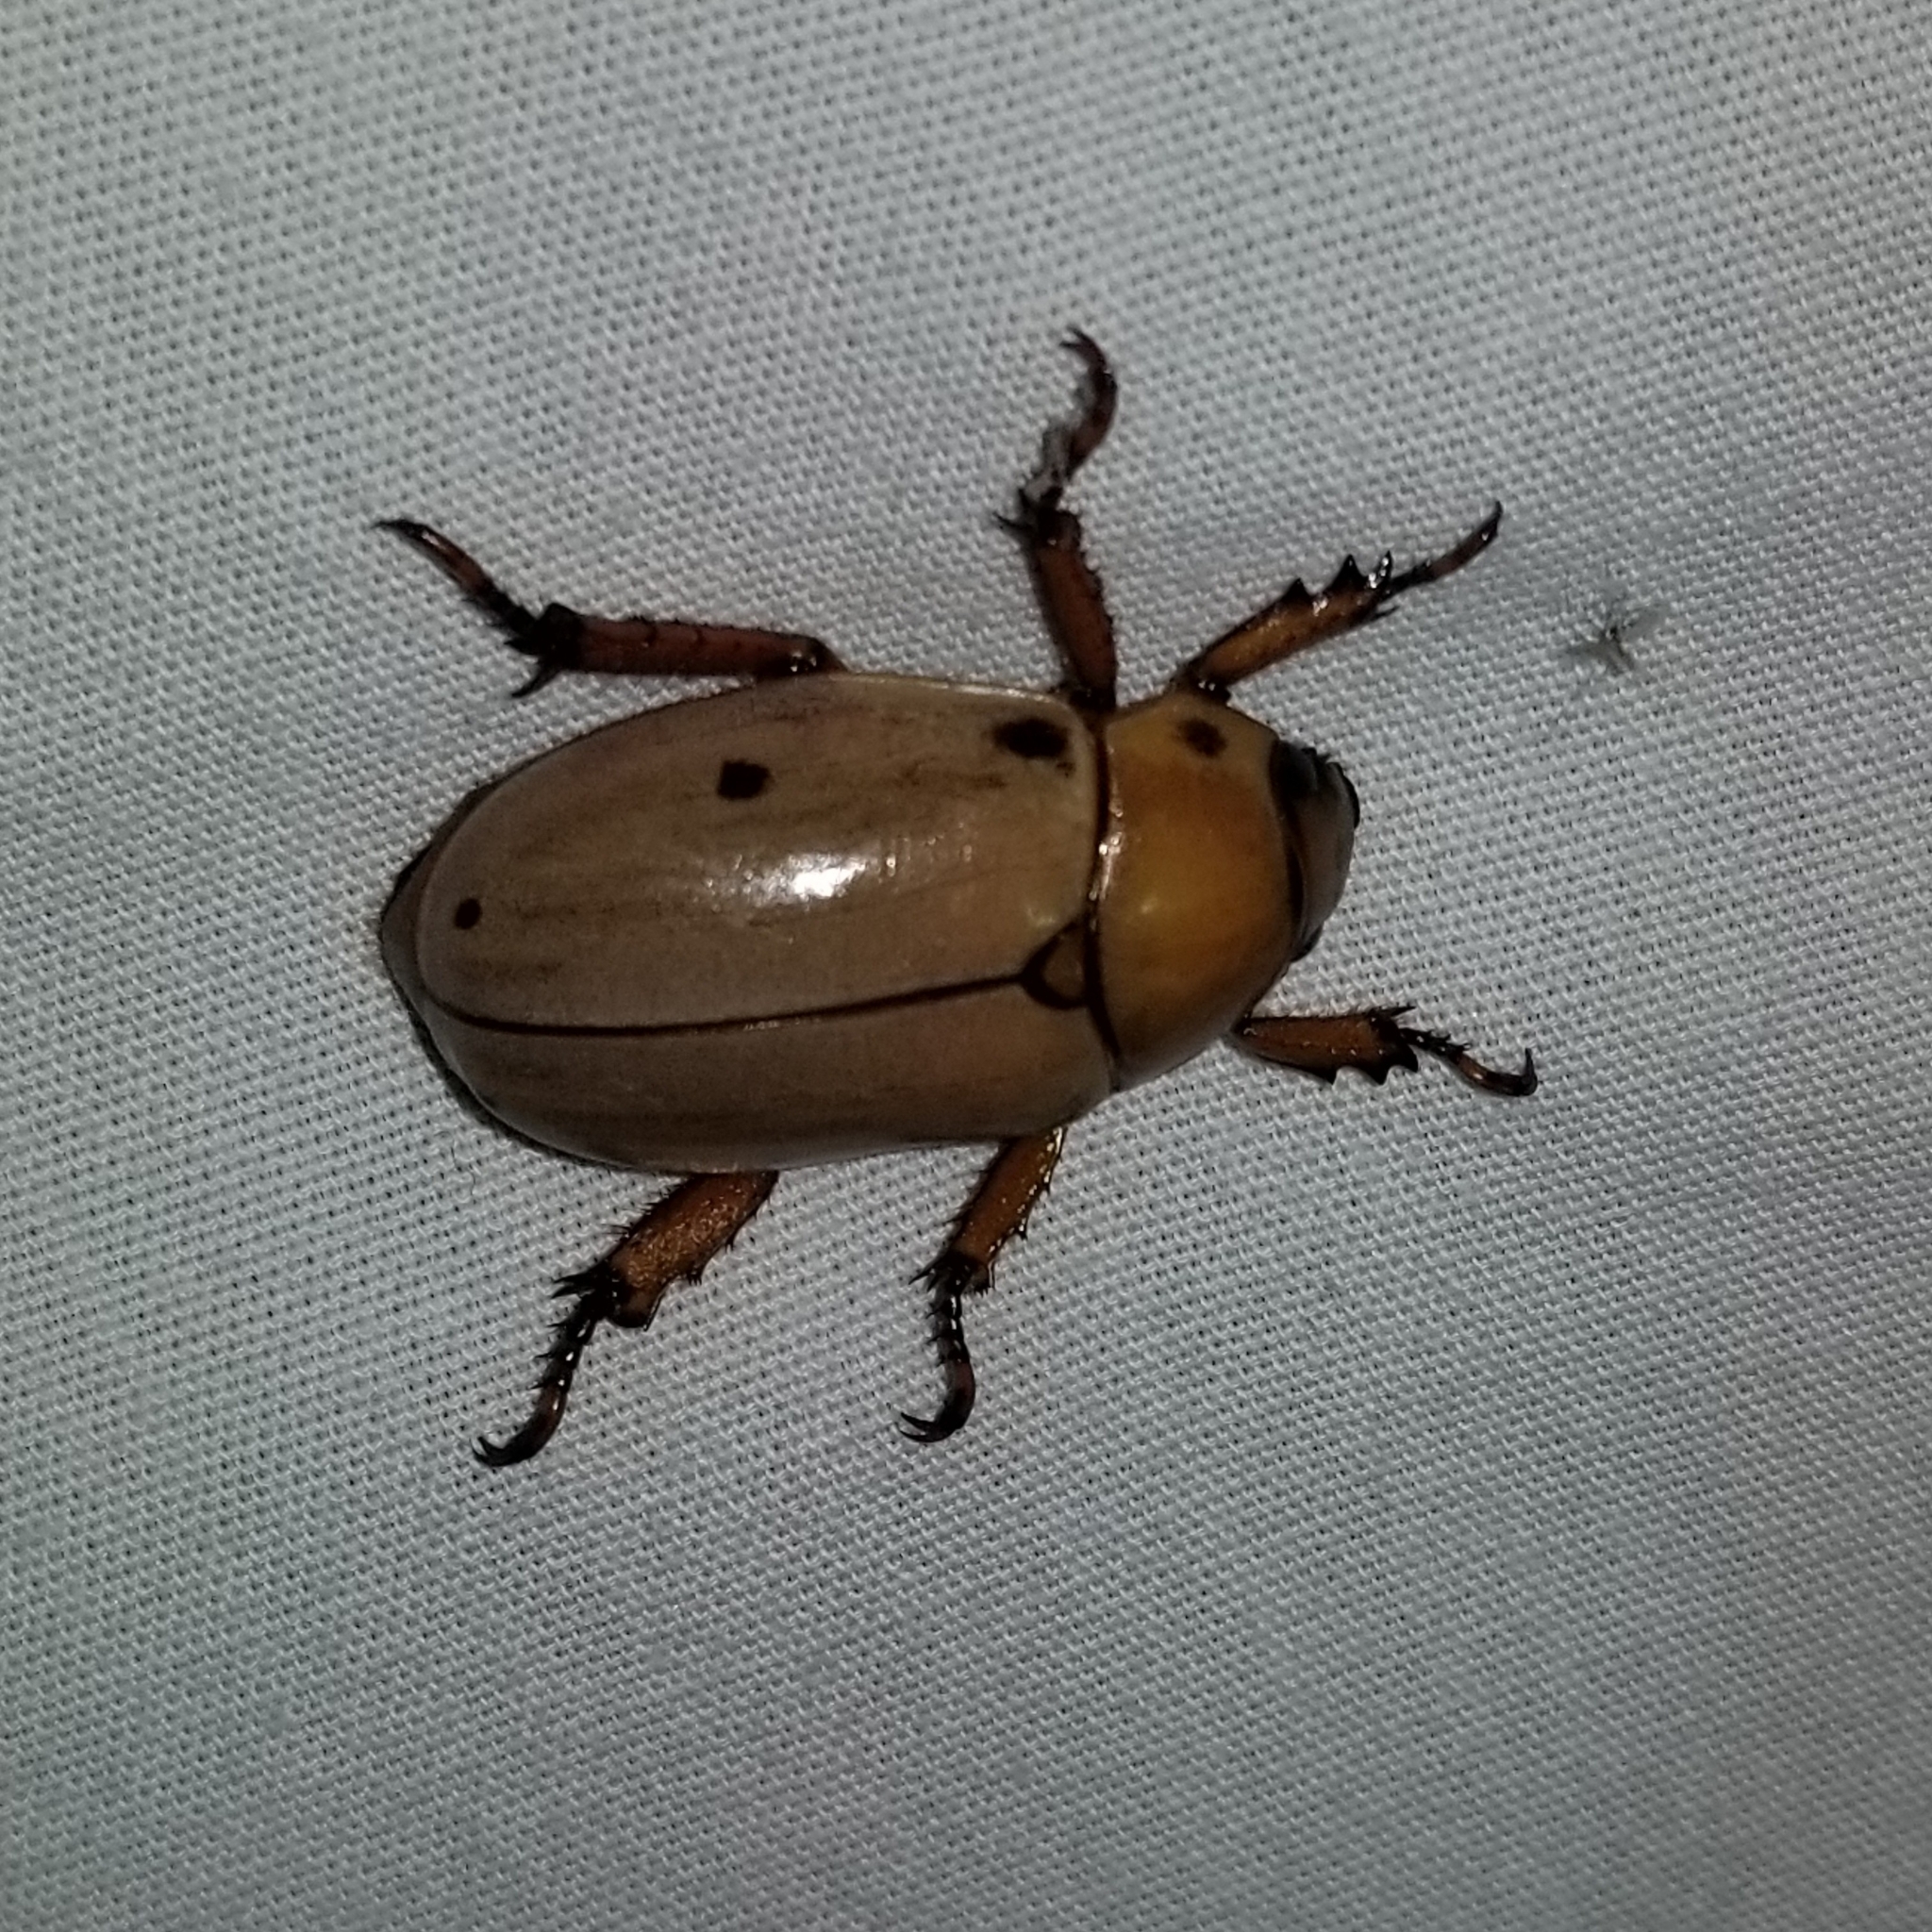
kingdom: Animalia
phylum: Arthropoda
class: Insecta
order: Coleoptera
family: Scarabaeidae
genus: Pelidnota
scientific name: Pelidnota punctata
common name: Grapevine beetle
